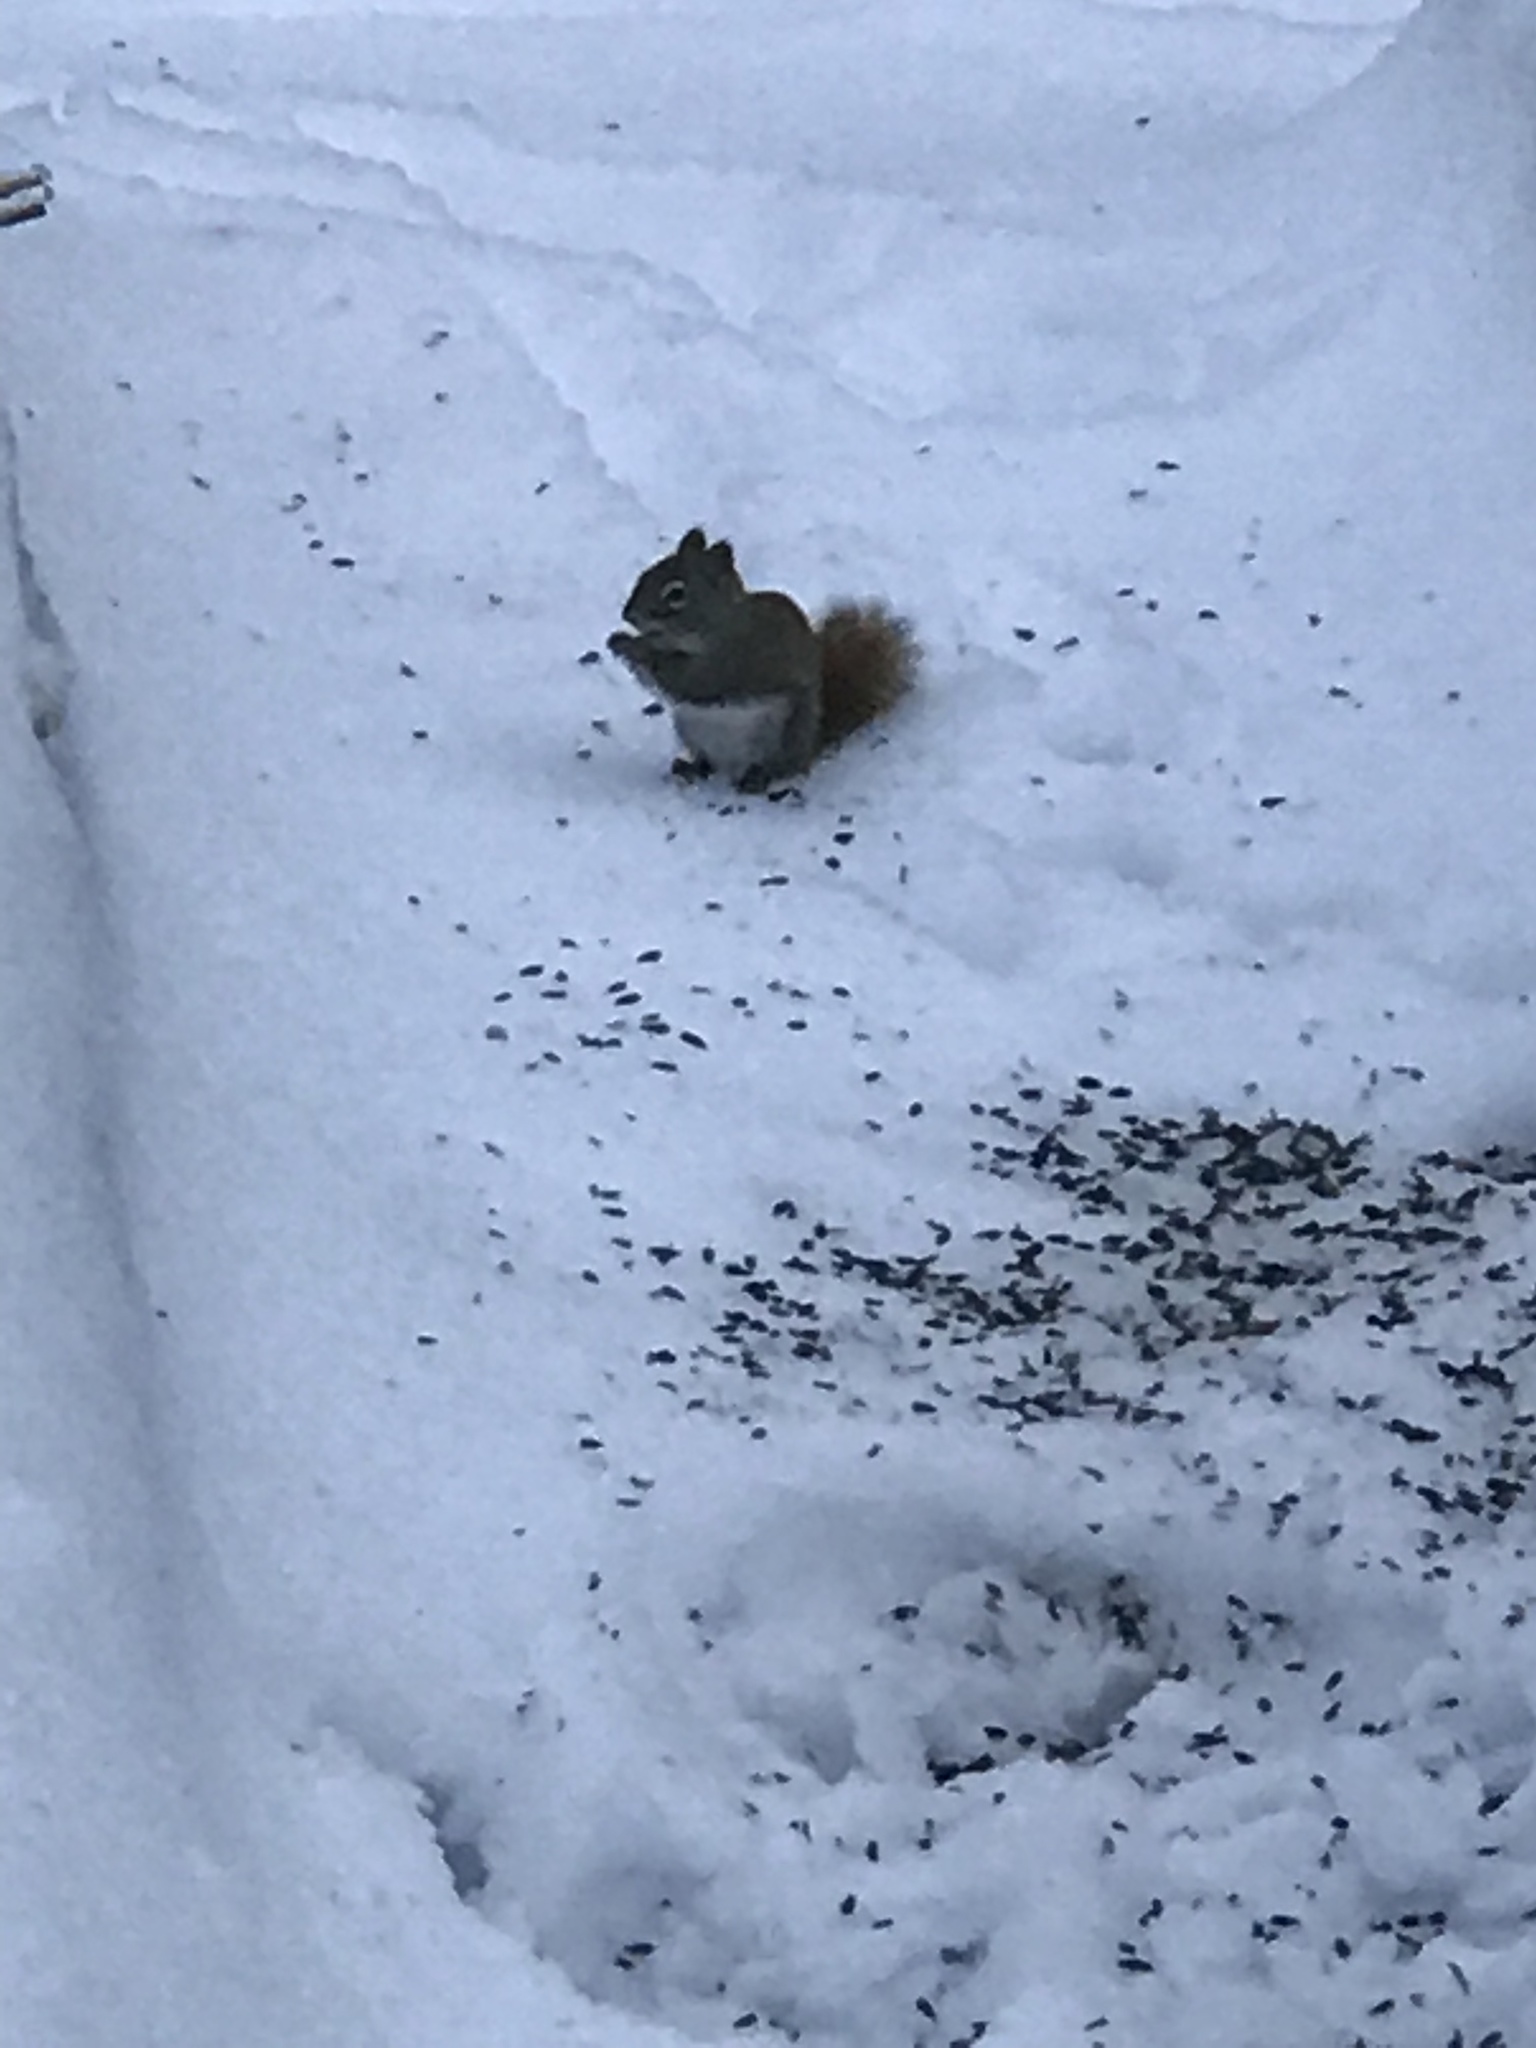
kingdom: Animalia
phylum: Chordata
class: Mammalia
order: Rodentia
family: Sciuridae
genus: Tamiasciurus
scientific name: Tamiasciurus hudsonicus
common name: Red squirrel
